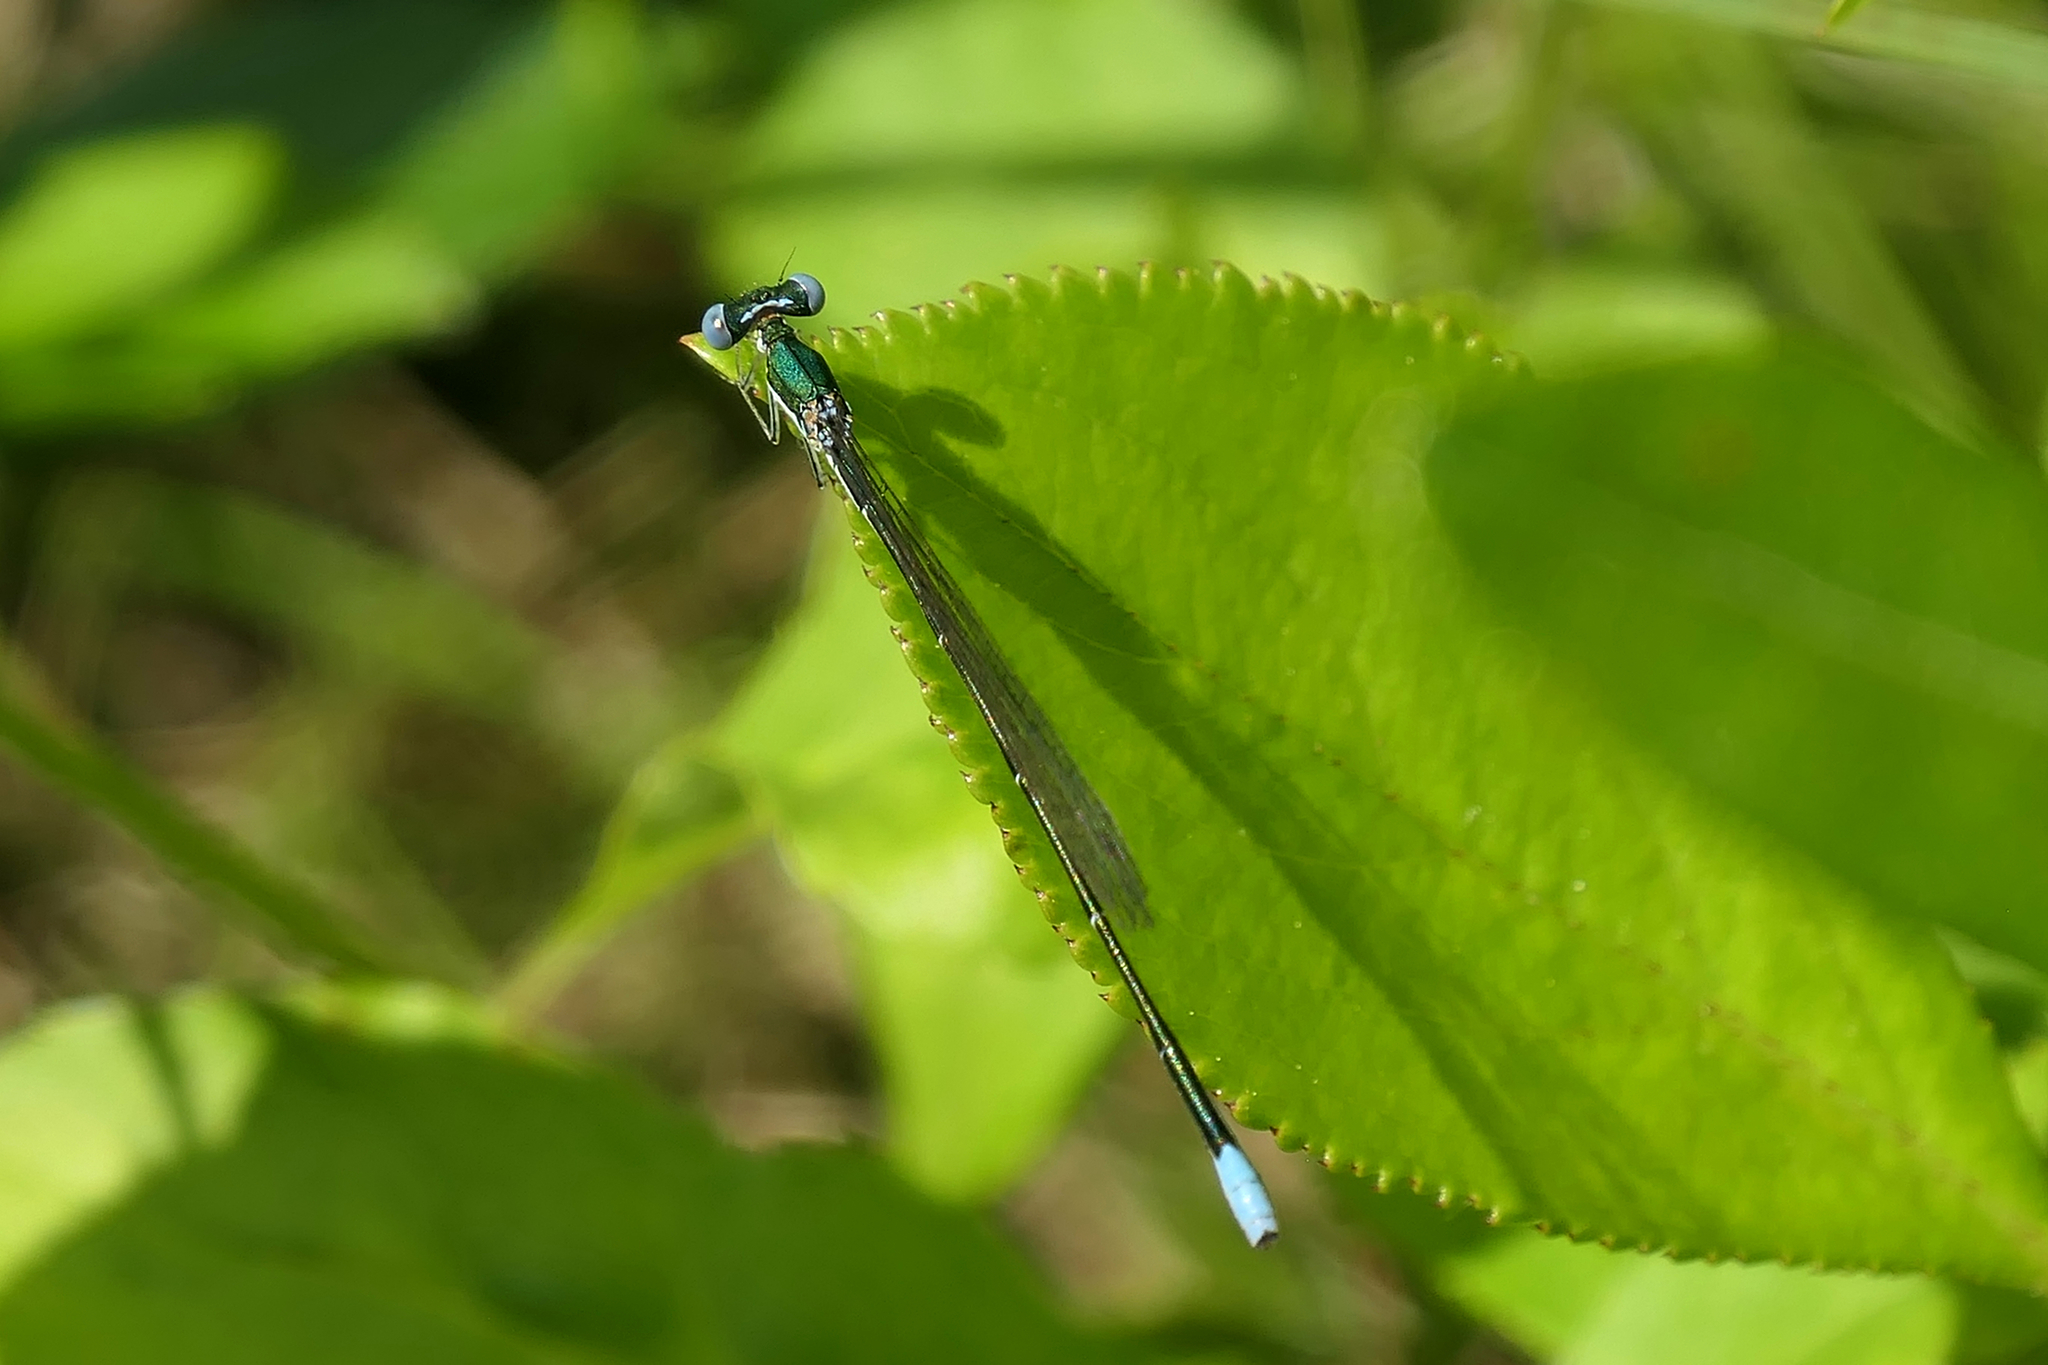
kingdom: Animalia
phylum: Arthropoda
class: Insecta
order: Odonata
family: Coenagrionidae
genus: Nehalennia
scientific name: Nehalennia gracilis
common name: Sphagnum sprite
